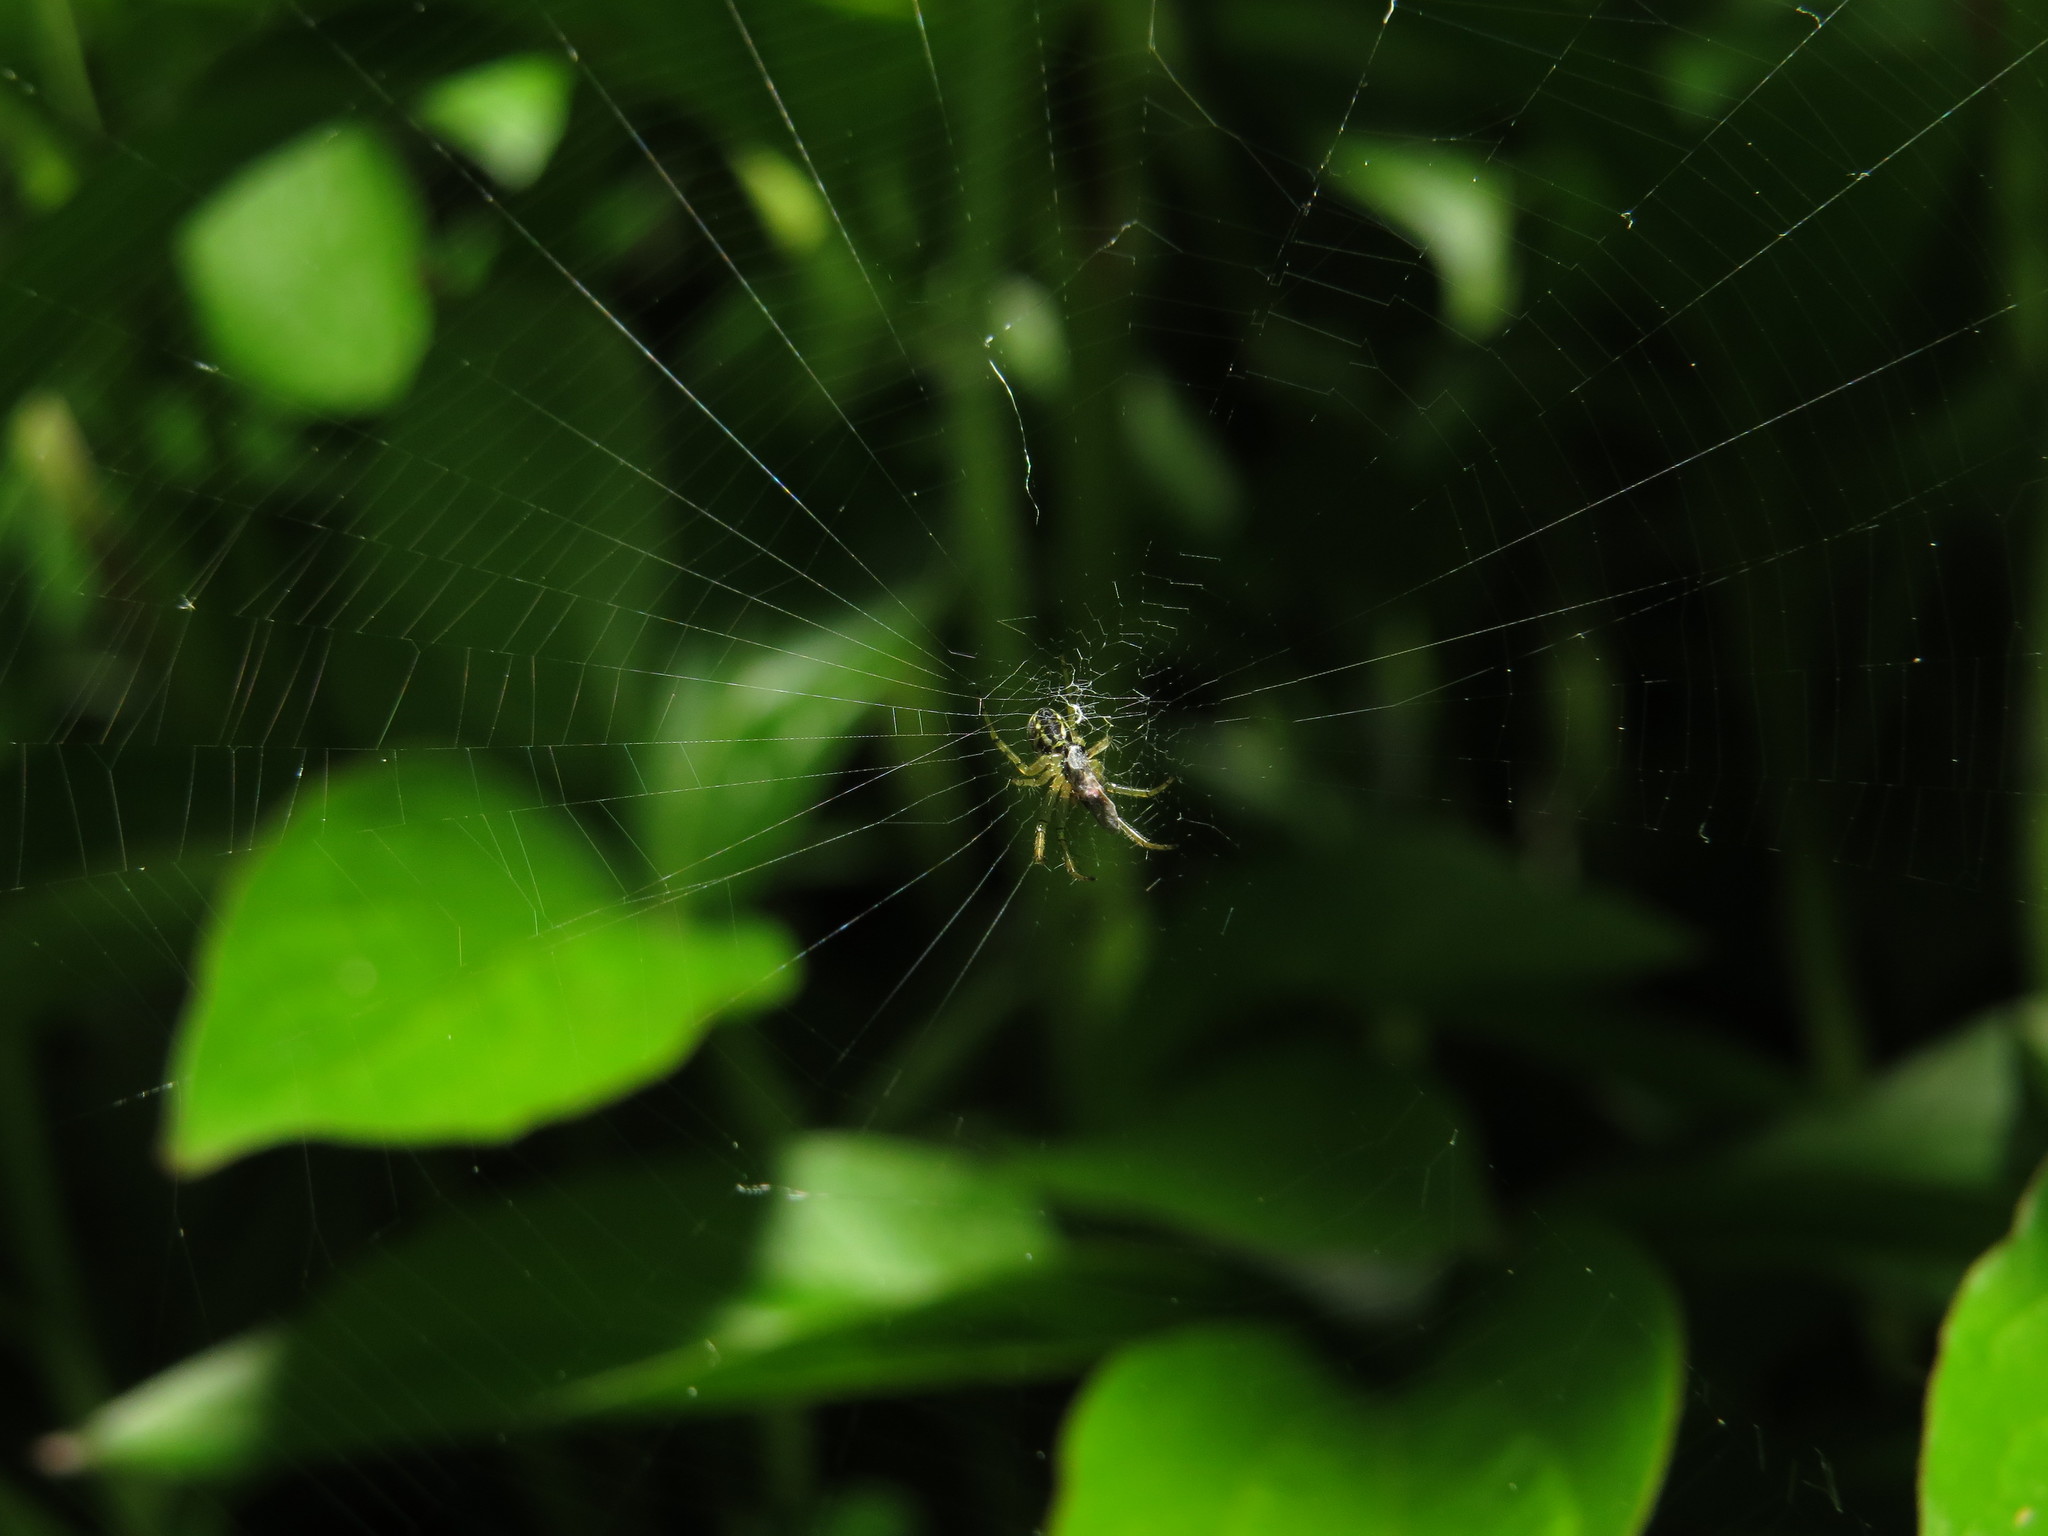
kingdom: Animalia
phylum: Arthropoda
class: Arachnida
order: Araneae
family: Araneidae
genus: Mangora
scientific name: Mangora acalypha
